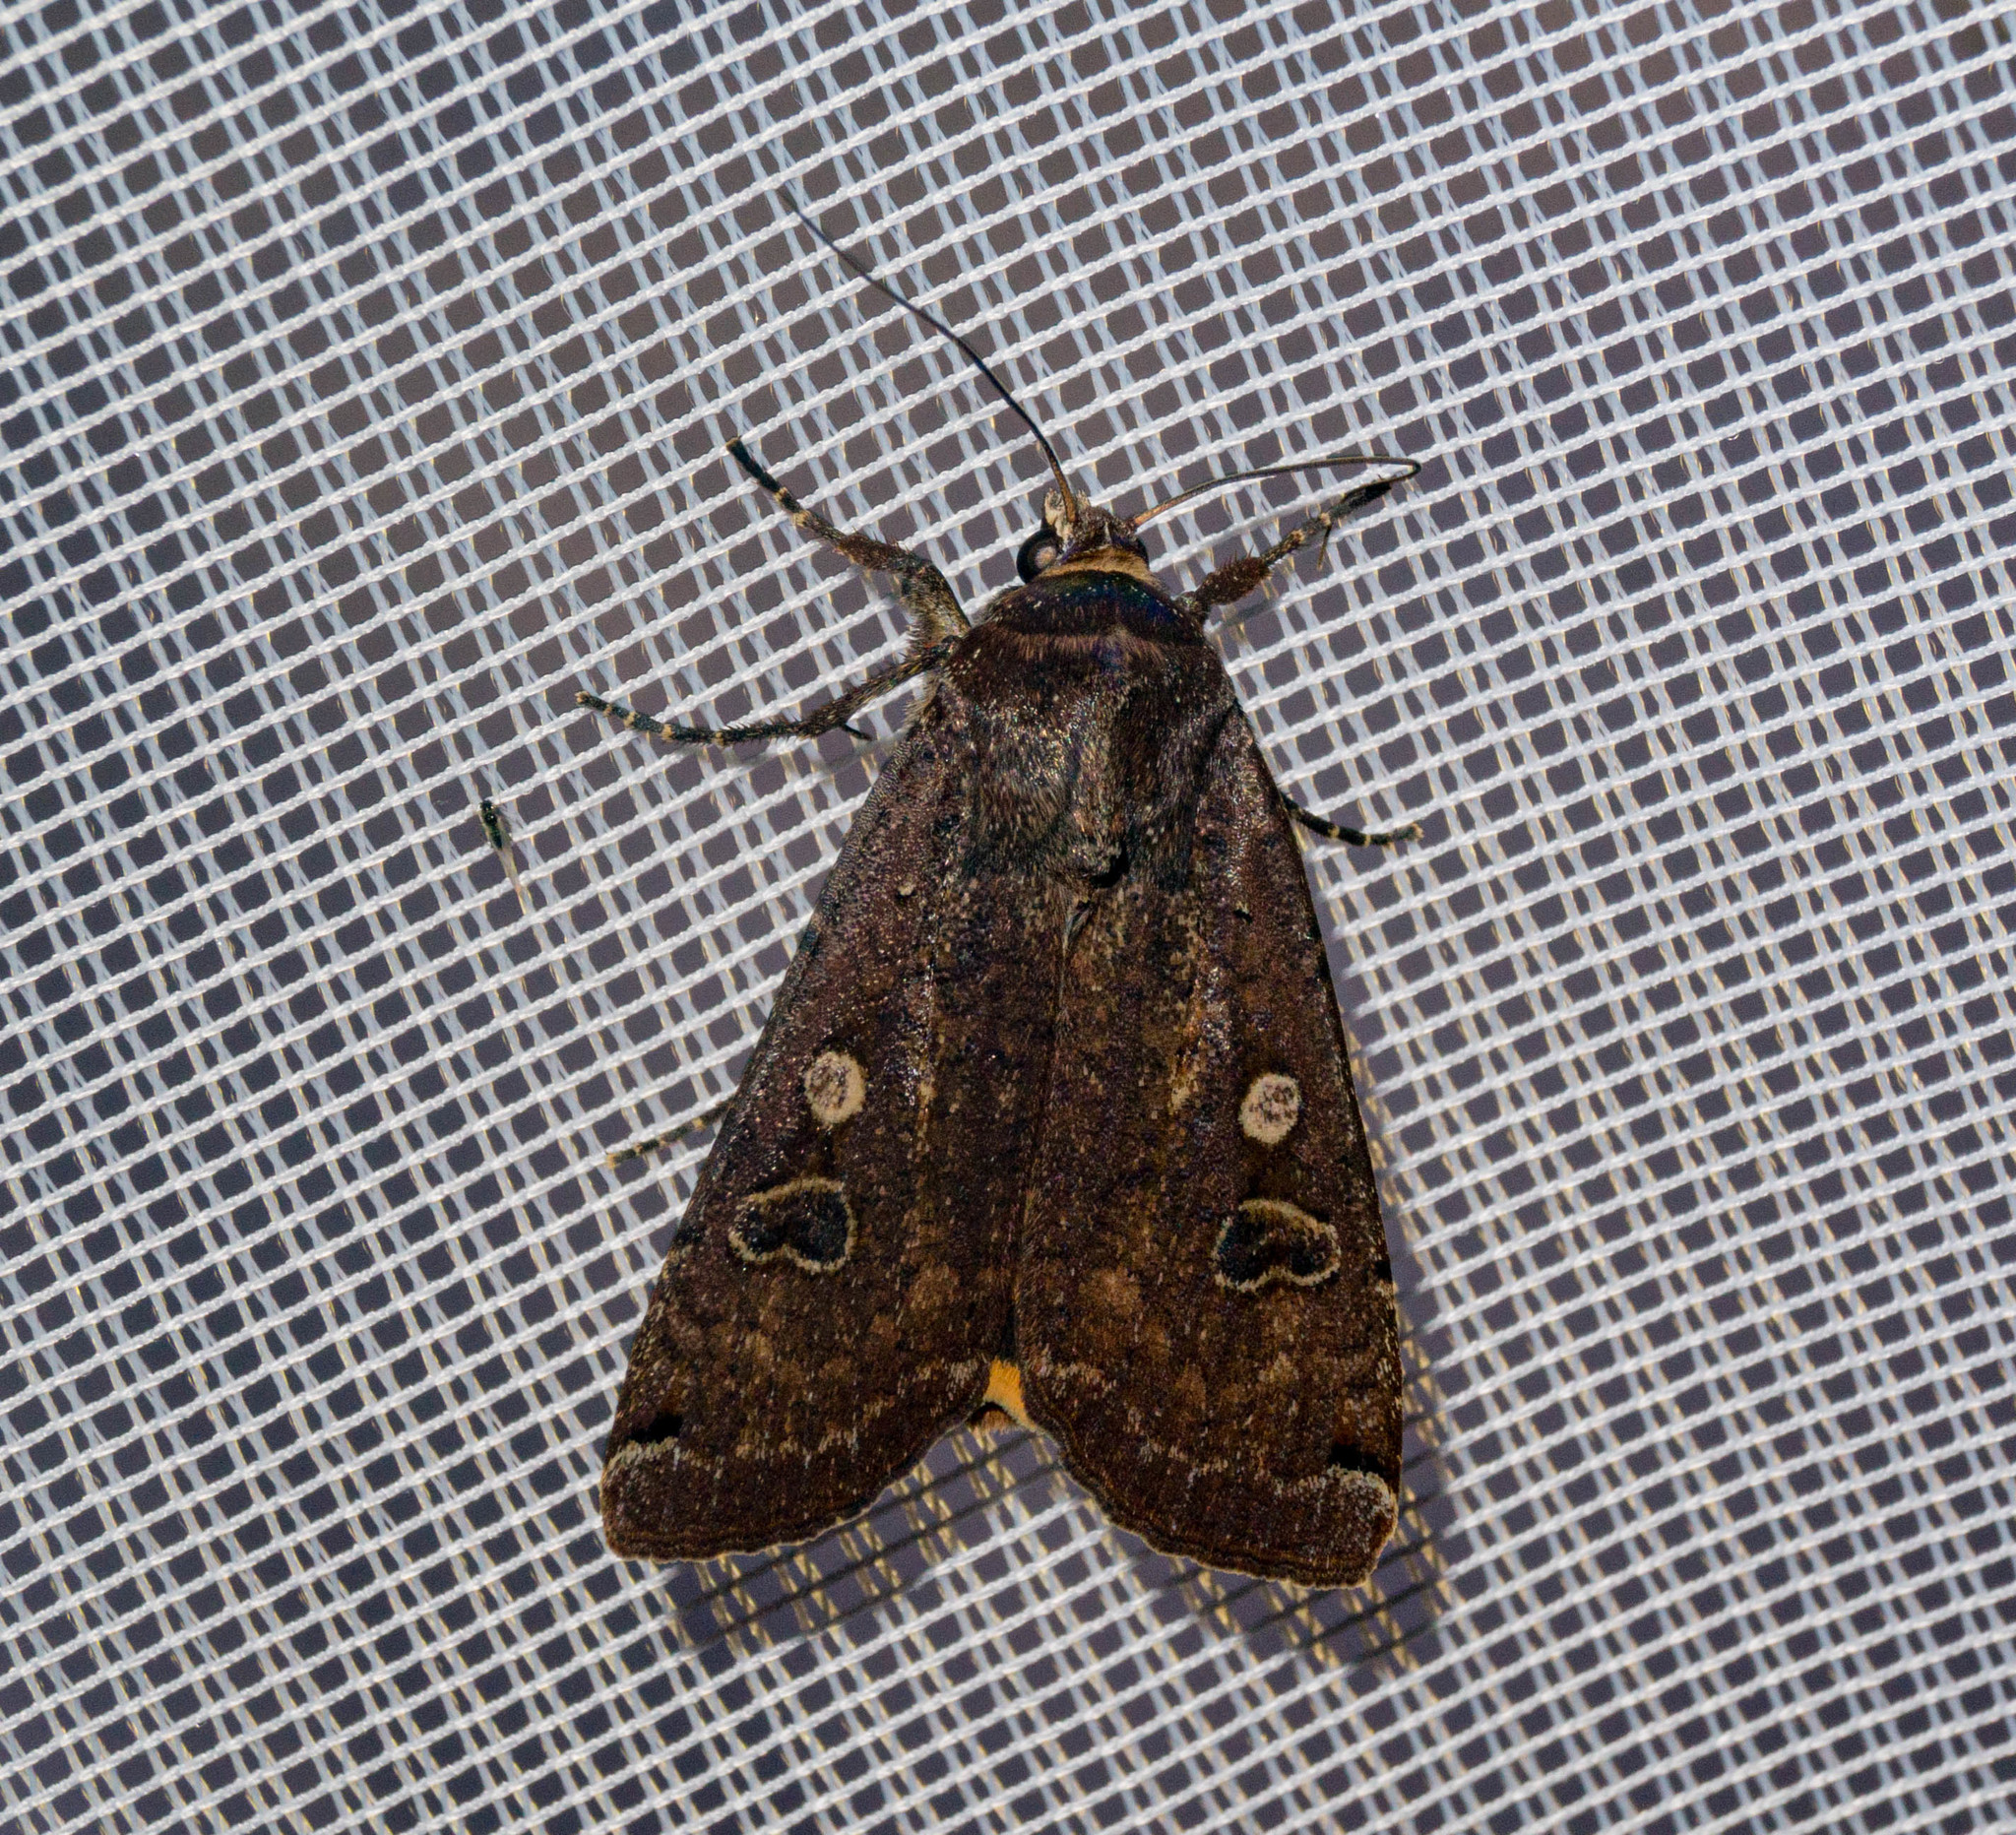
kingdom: Animalia
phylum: Arthropoda
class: Insecta
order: Lepidoptera
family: Noctuidae
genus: Noctua
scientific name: Noctua pronuba
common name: Large yellow underwing
